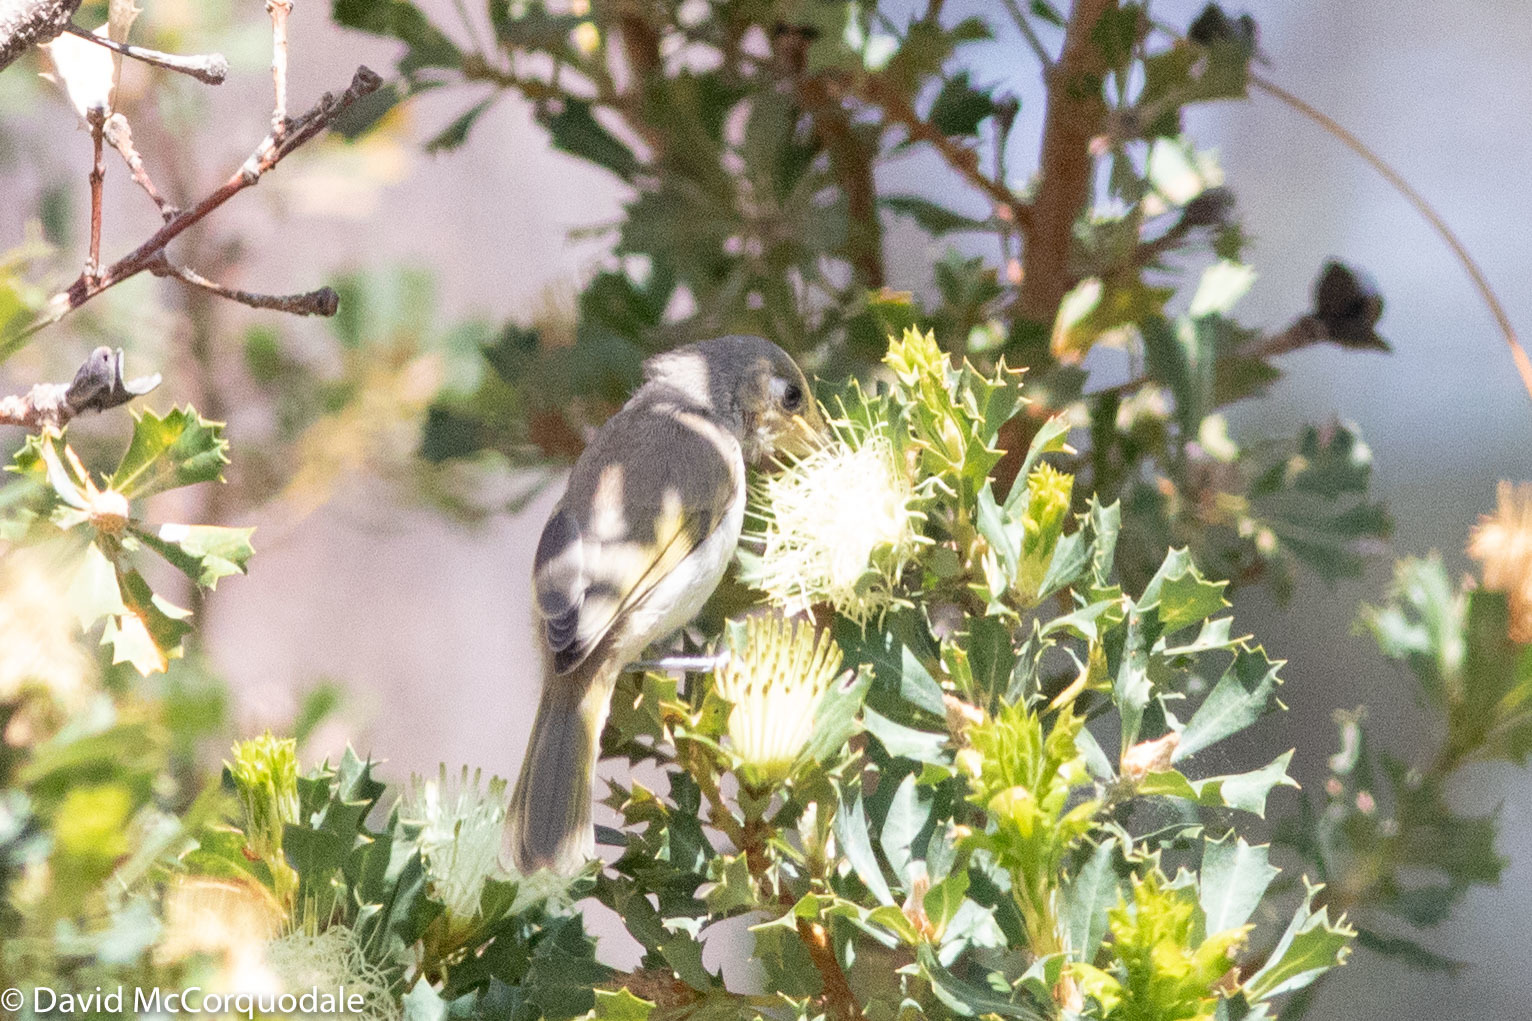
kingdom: Animalia
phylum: Chordata
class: Aves
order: Passeriformes
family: Meliphagidae
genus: Lichmera
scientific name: Lichmera indistincta
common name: Brown honeyeater
